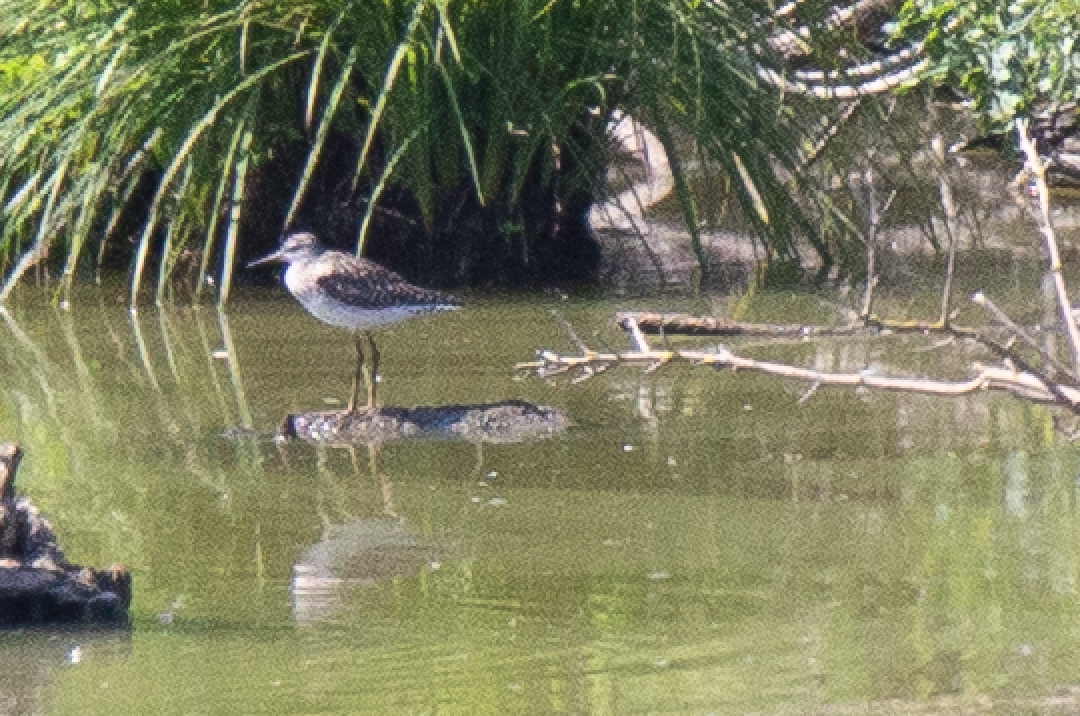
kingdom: Animalia
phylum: Chordata
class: Aves
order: Charadriiformes
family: Scolopacidae
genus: Tringa
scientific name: Tringa glareola
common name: Wood sandpiper
